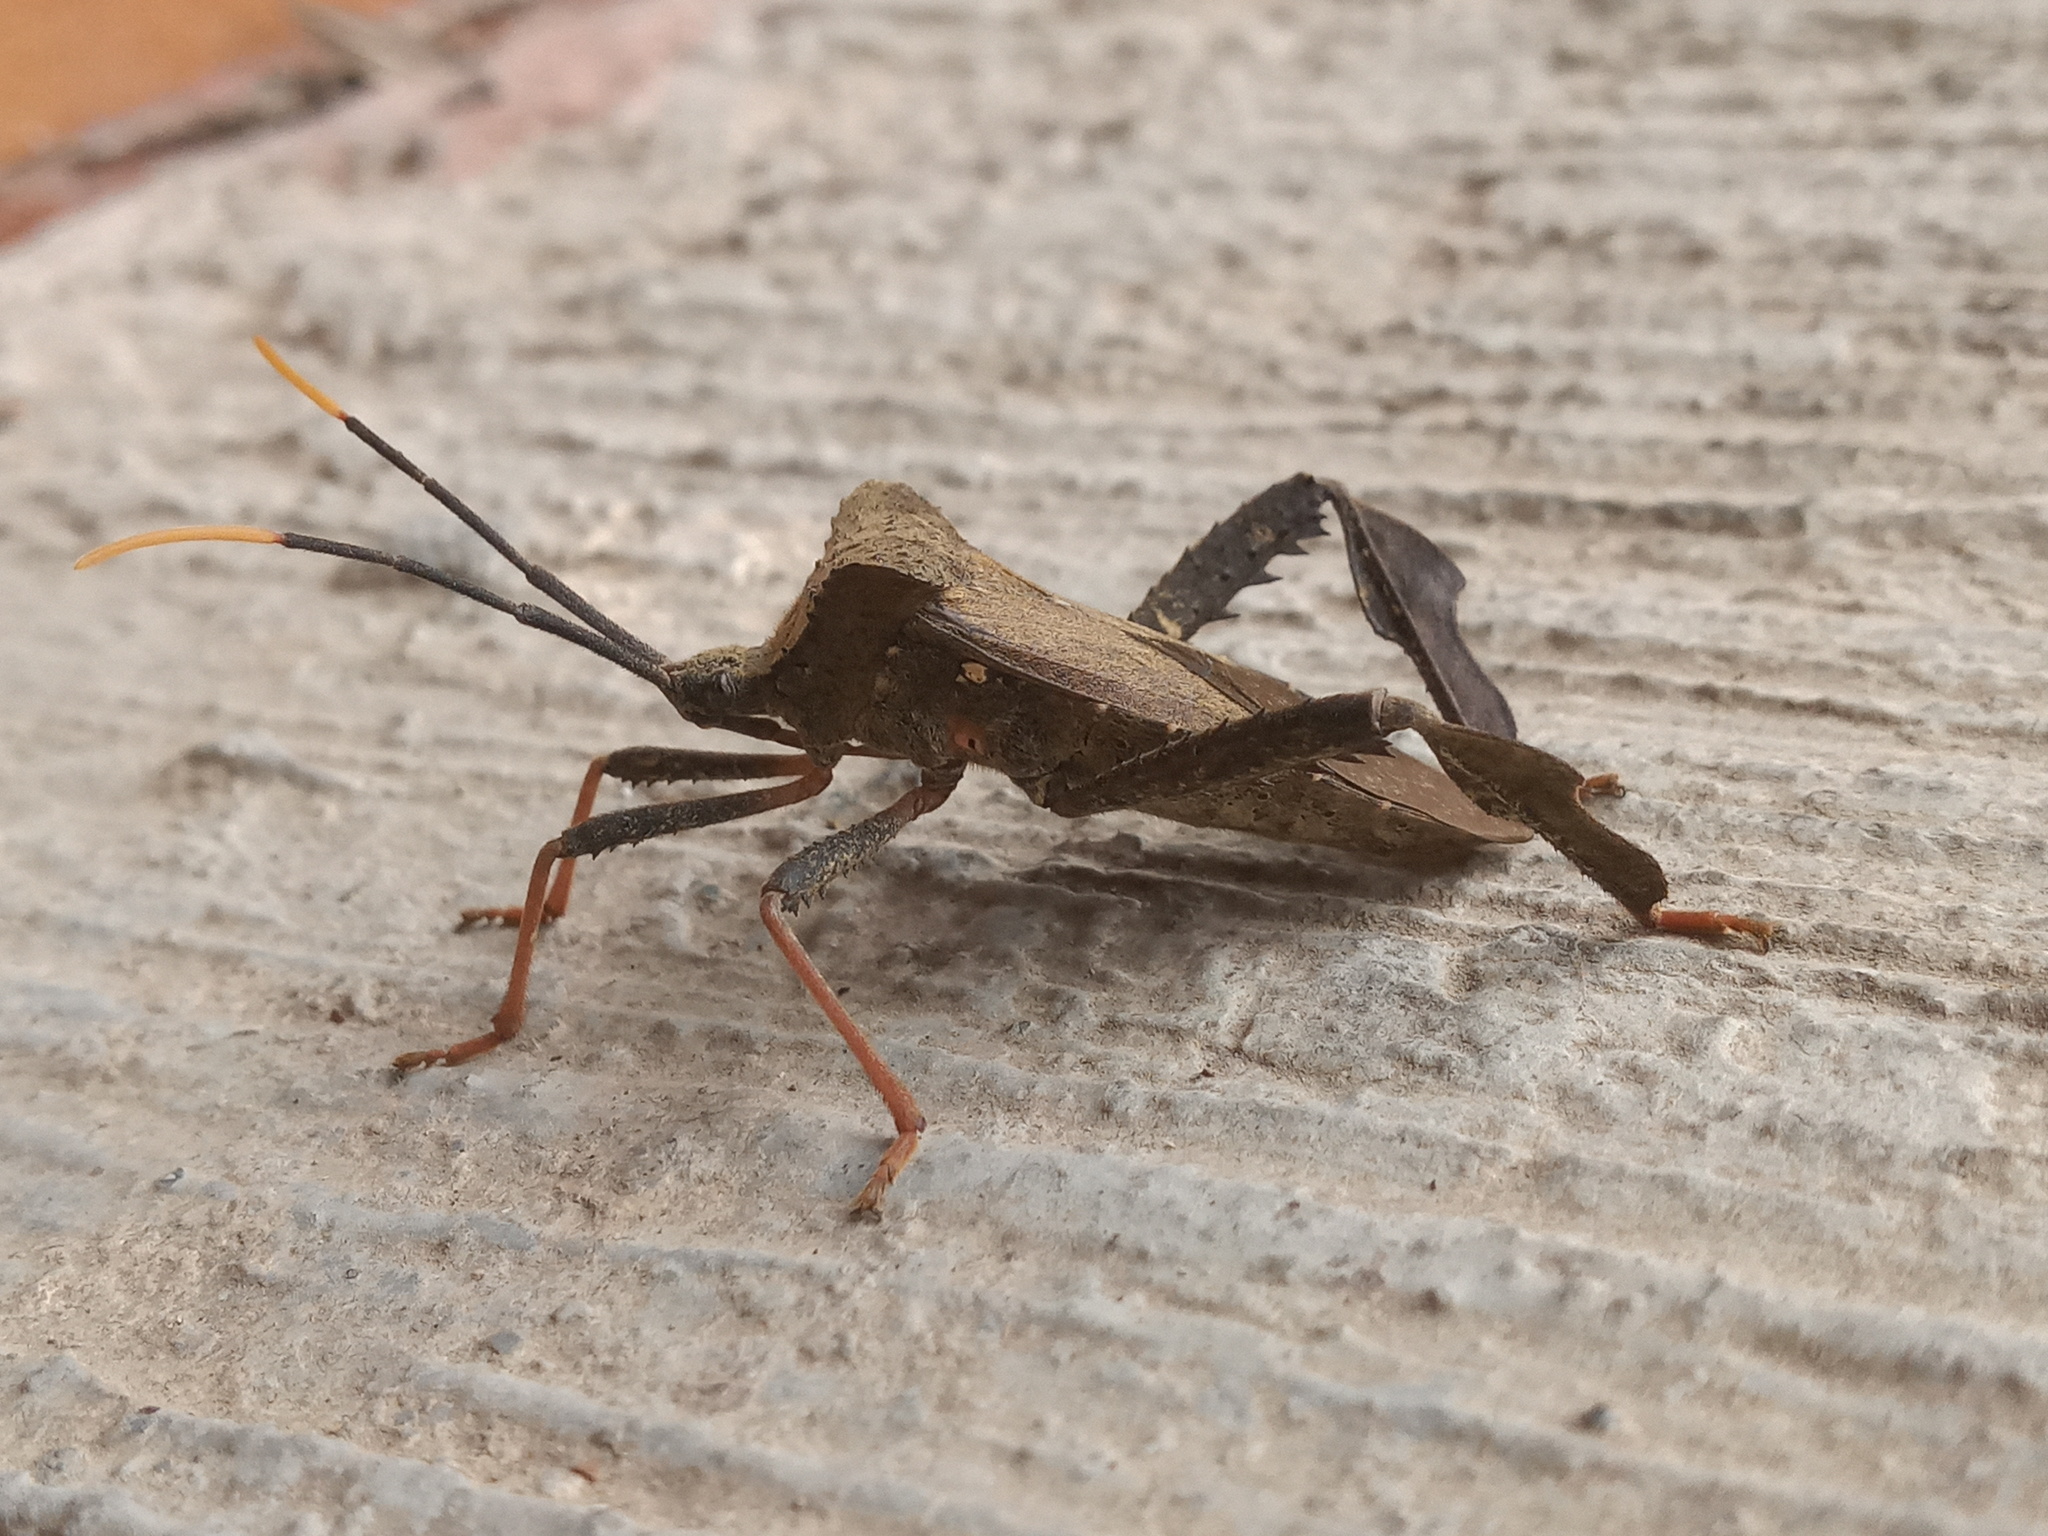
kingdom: Animalia
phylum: Arthropoda
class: Insecta
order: Hemiptera
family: Coreidae
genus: Acanthocephala
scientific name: Acanthocephala alata
